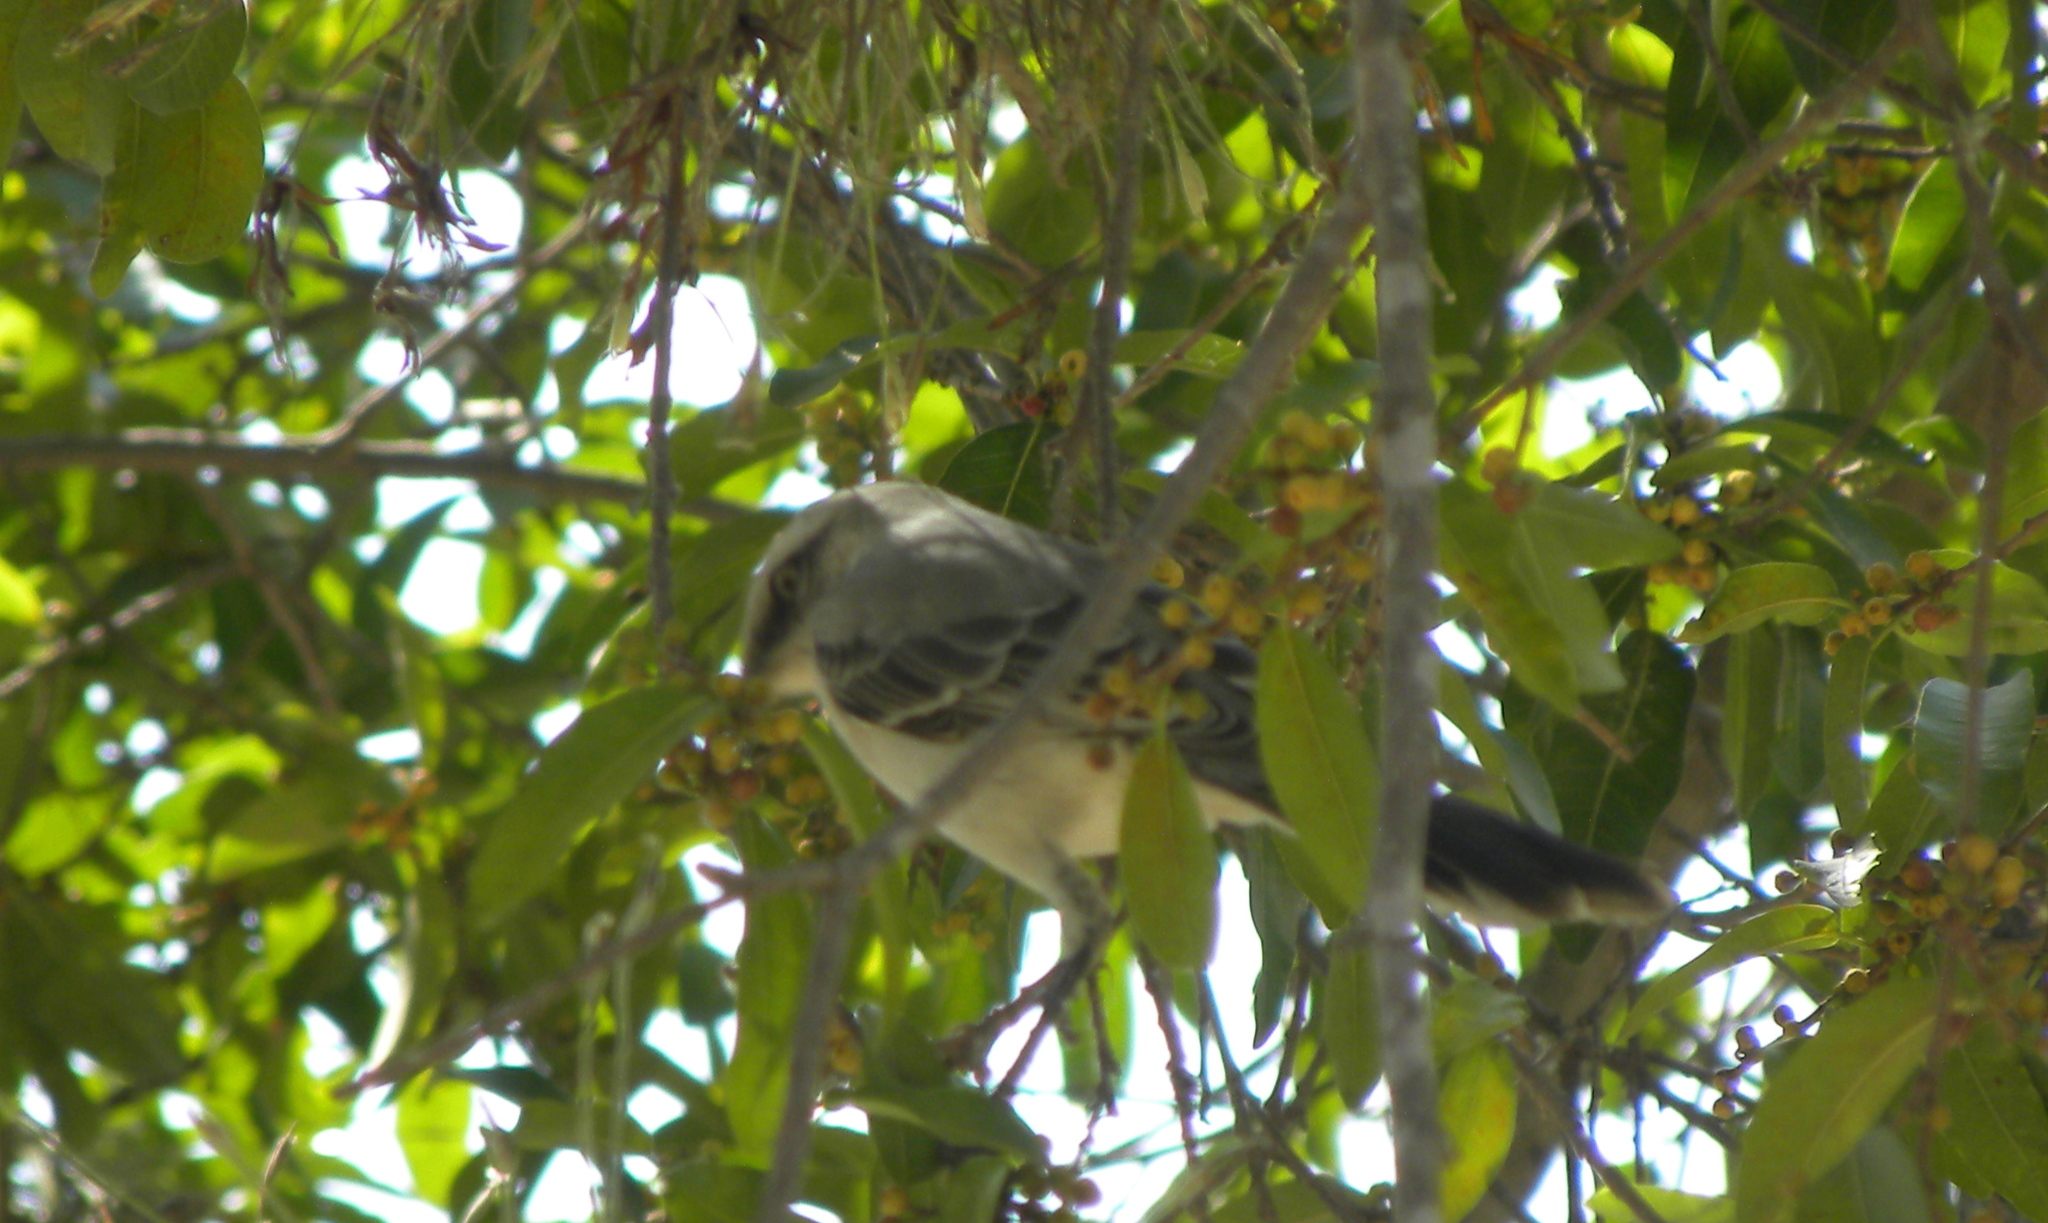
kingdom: Animalia
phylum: Chordata
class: Aves
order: Passeriformes
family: Mimidae
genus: Mimus
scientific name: Mimus gilvus
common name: Tropical mockingbird
